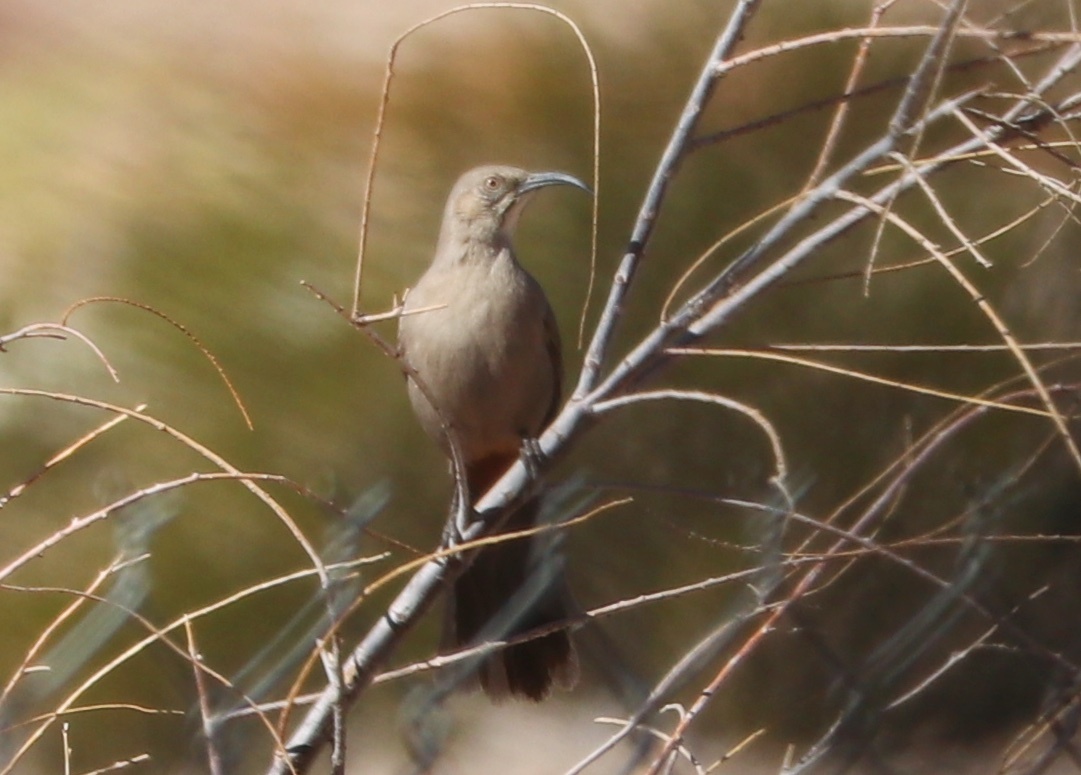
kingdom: Animalia
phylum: Chordata
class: Aves
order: Passeriformes
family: Mimidae
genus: Toxostoma
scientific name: Toxostoma crissale
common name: Crissal thrasher
